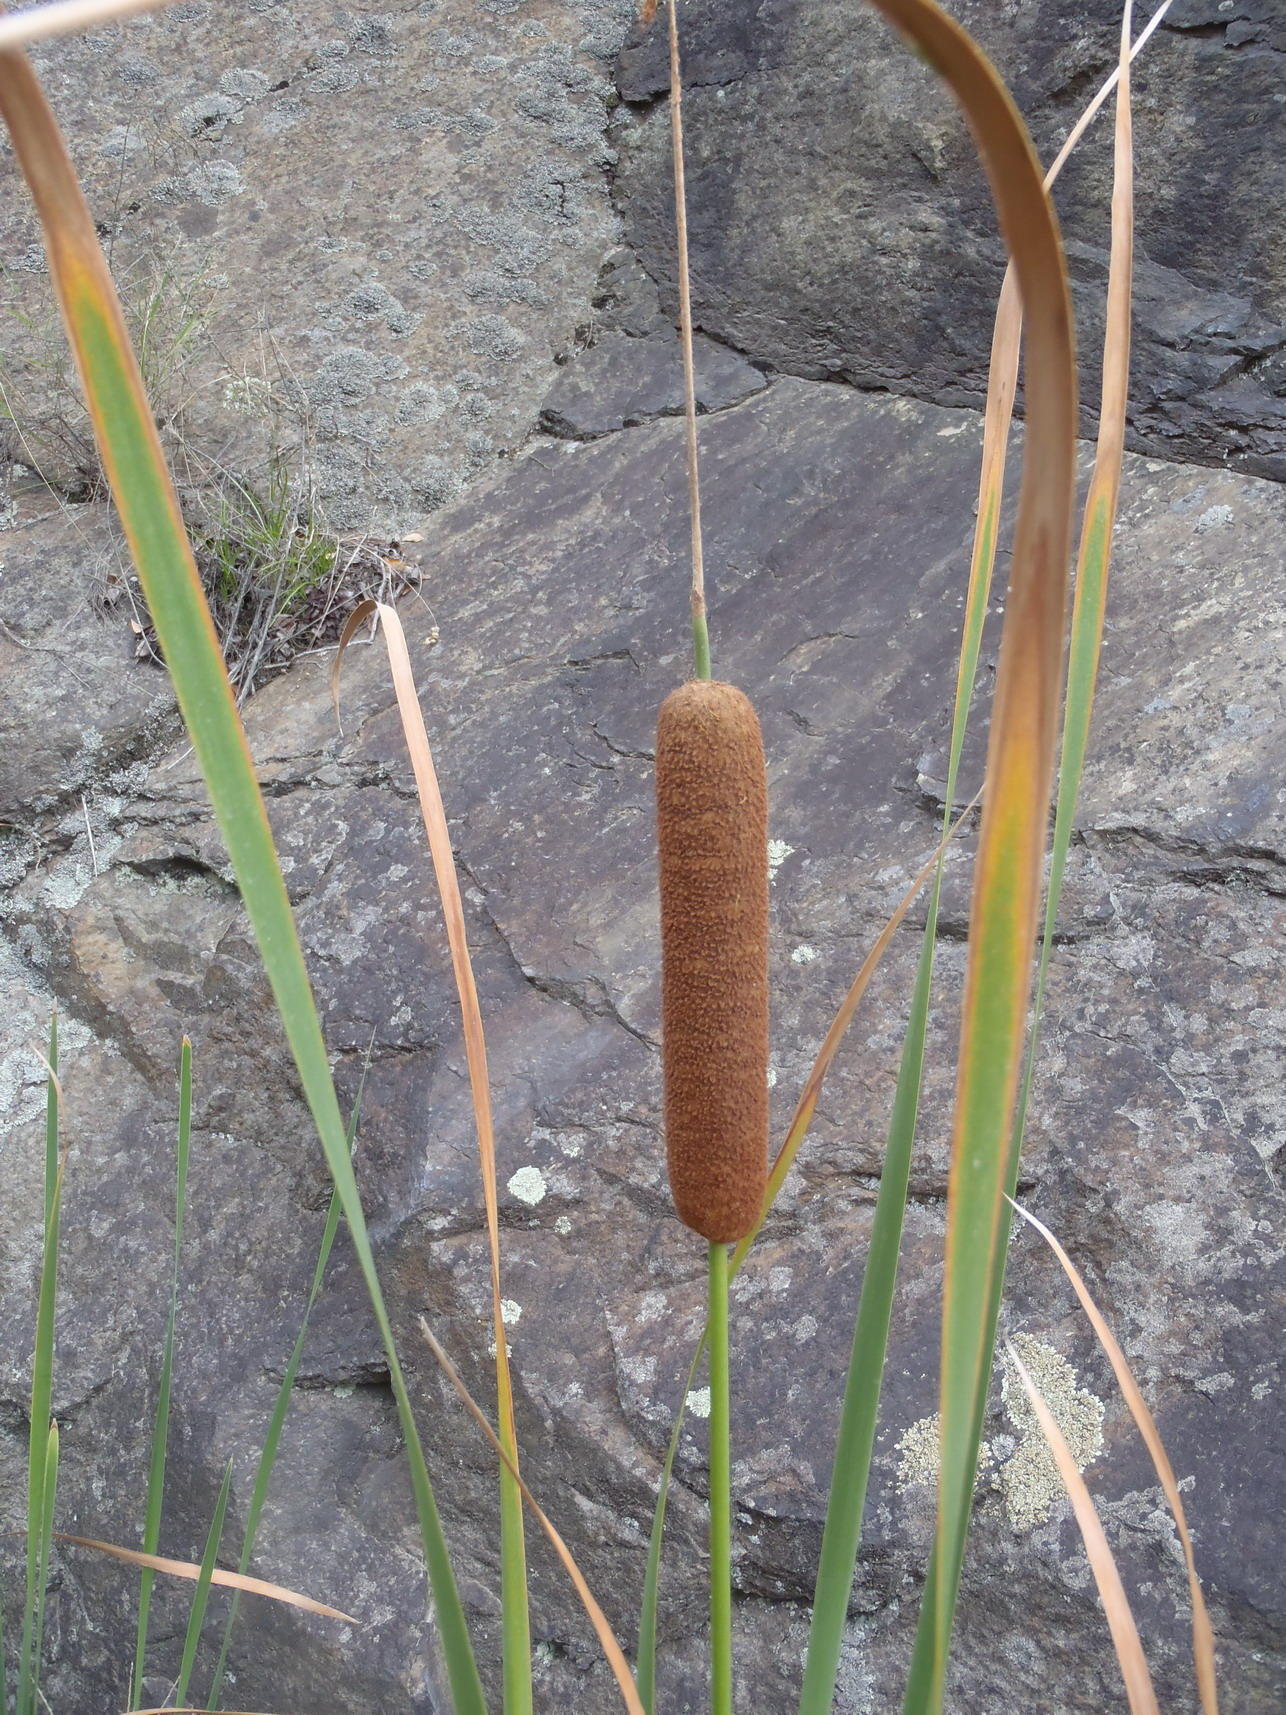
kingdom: Plantae
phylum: Tracheophyta
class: Liliopsida
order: Poales
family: Typhaceae
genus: Typha
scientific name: Typha capensis
